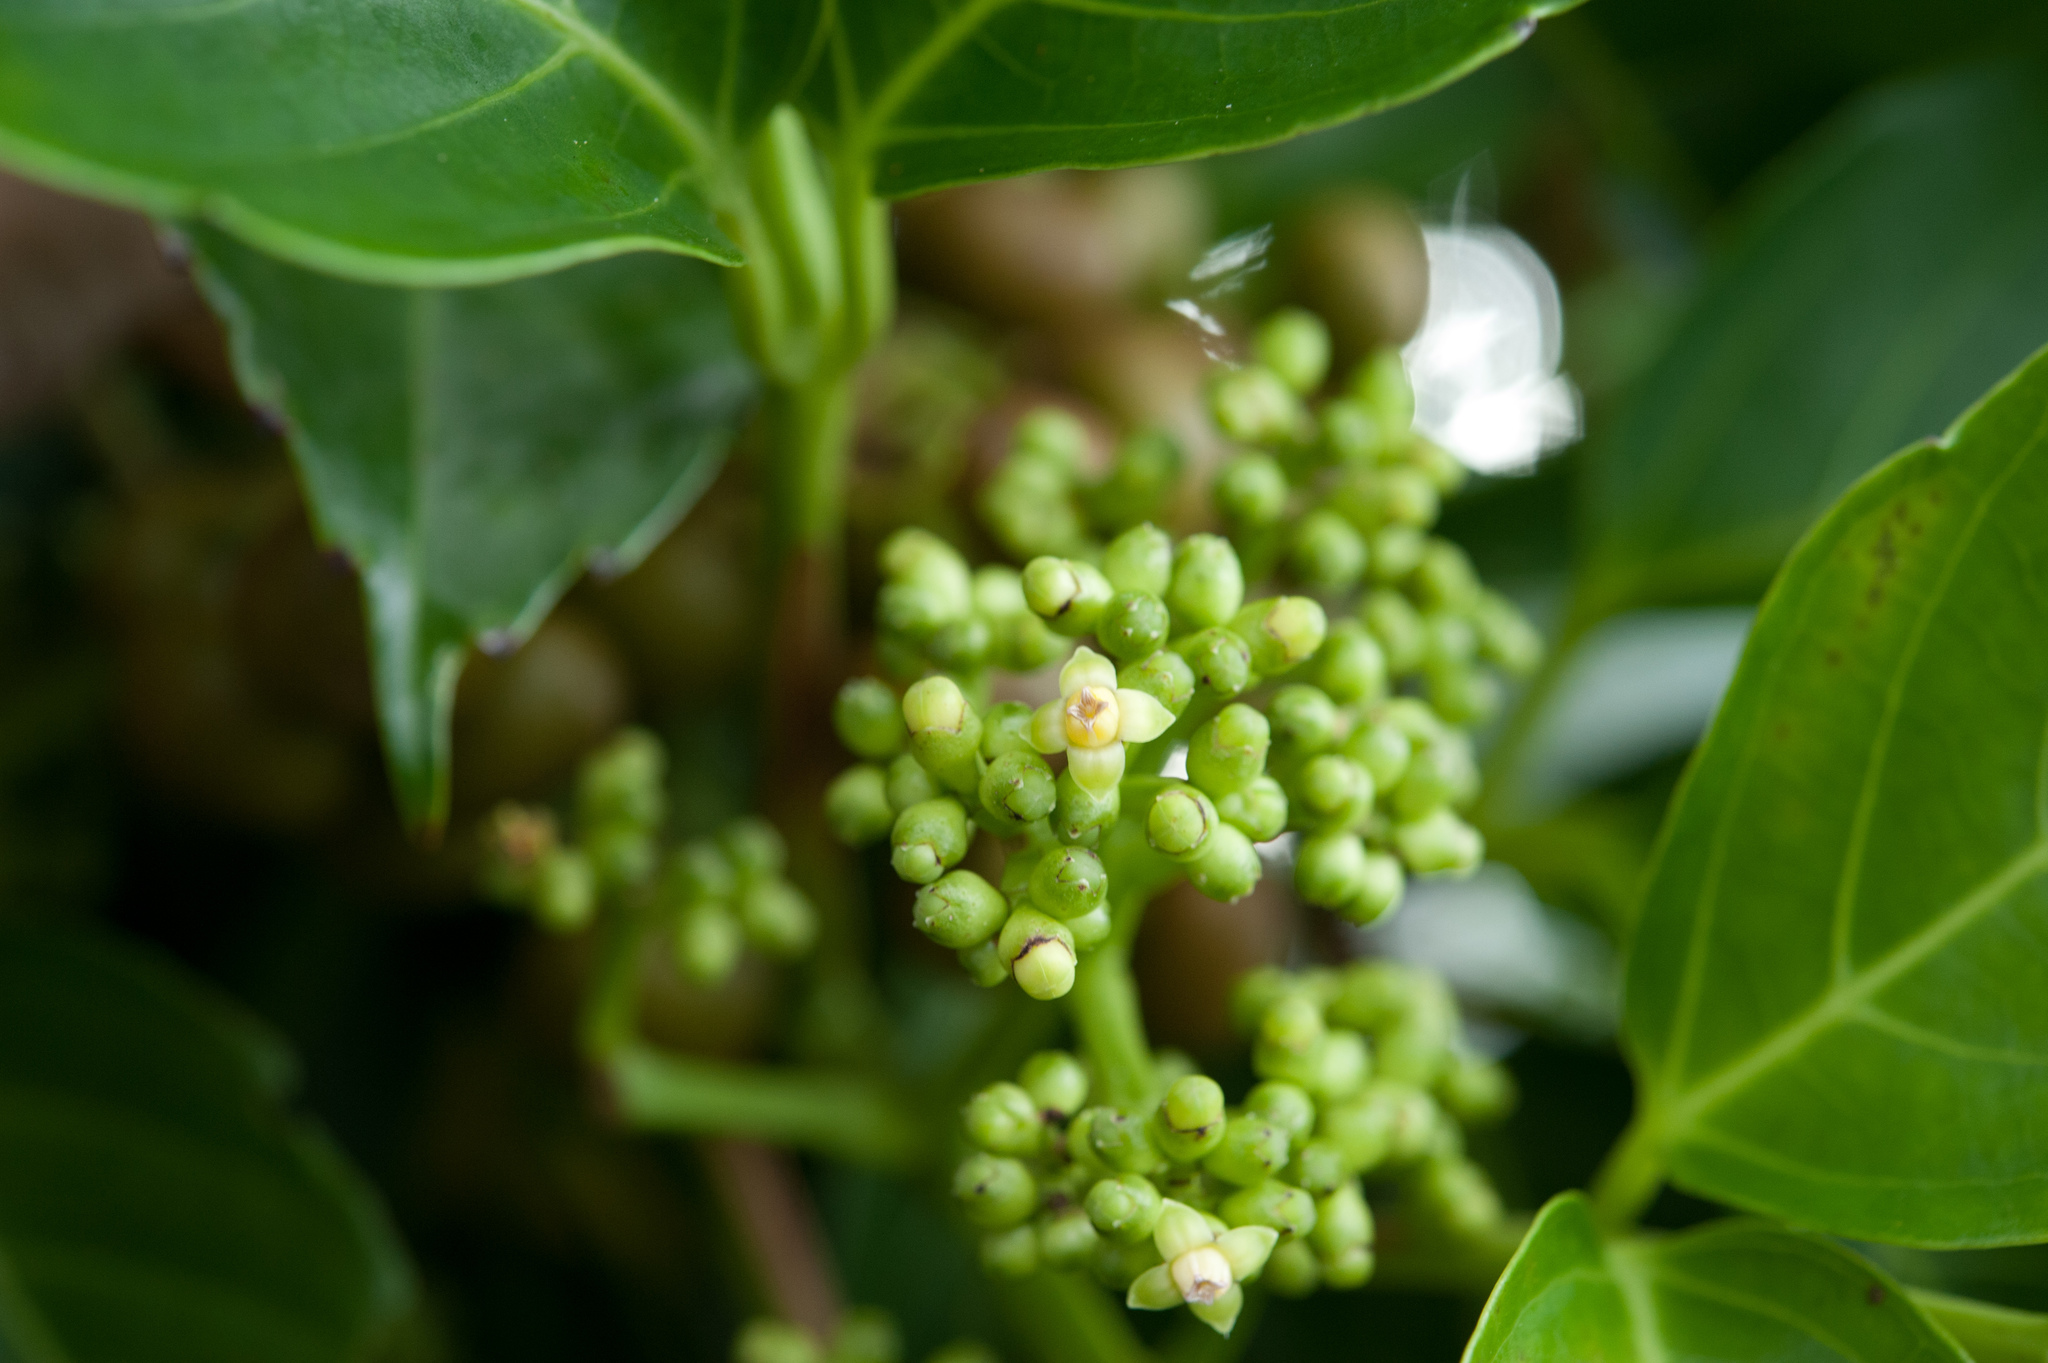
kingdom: Plantae
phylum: Tracheophyta
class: Magnoliopsida
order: Vitales
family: Vitaceae
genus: Leea
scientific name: Leea philippinensis
